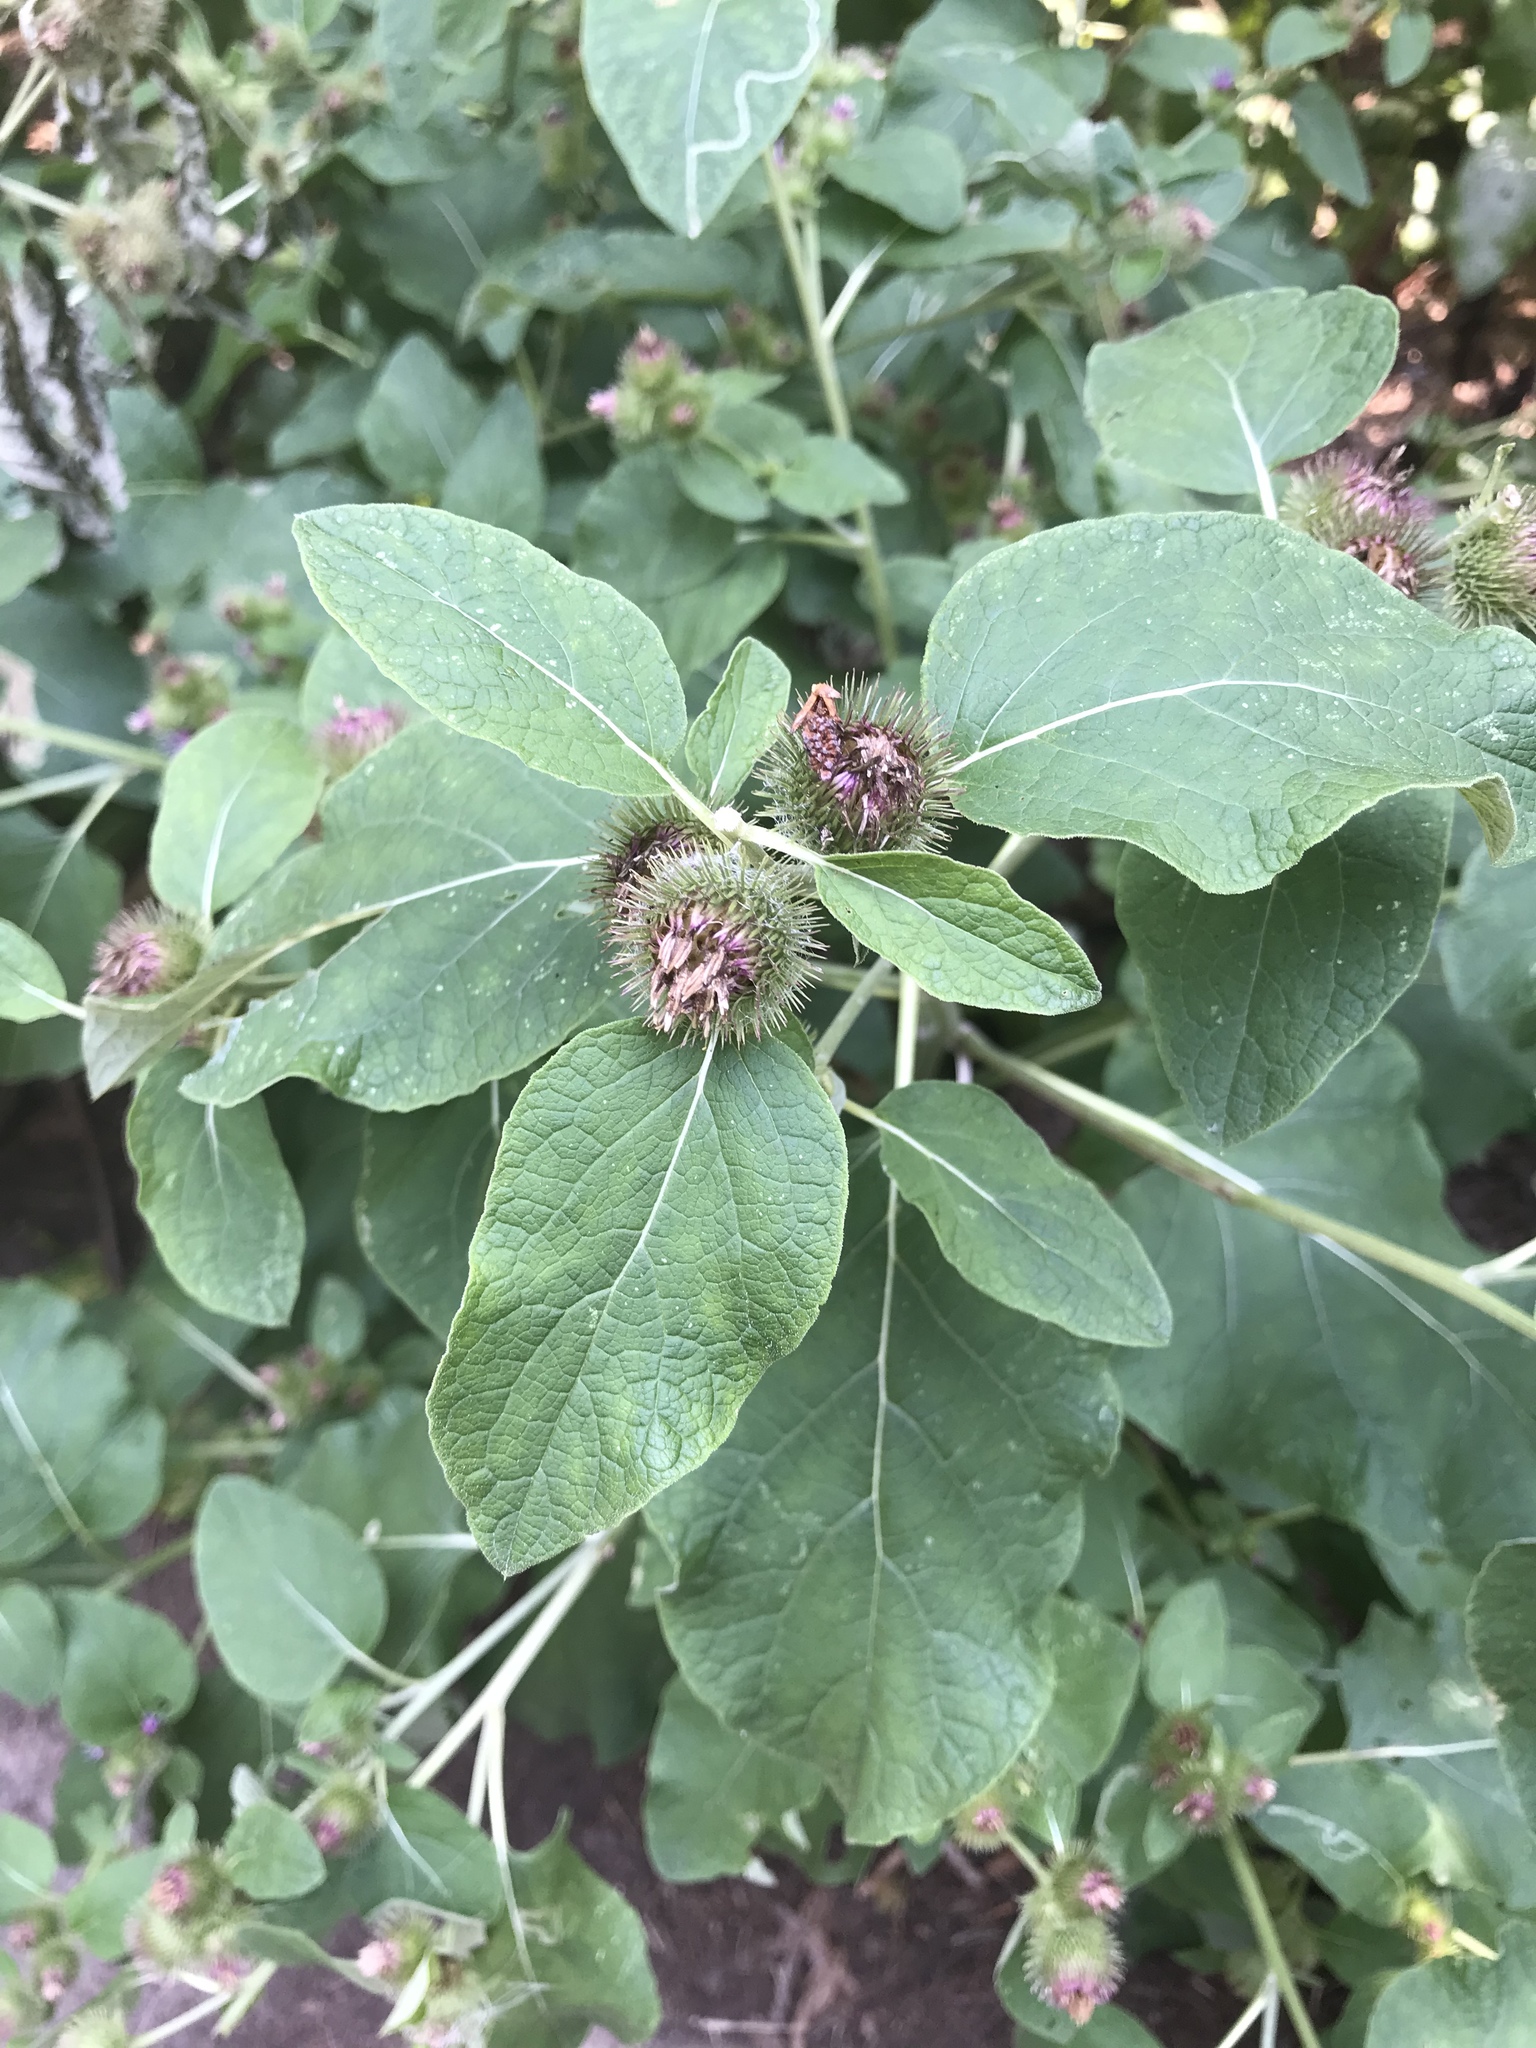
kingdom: Plantae
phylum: Tracheophyta
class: Magnoliopsida
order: Asterales
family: Asteraceae
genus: Arctium
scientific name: Arctium minus
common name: Lesser burdock
